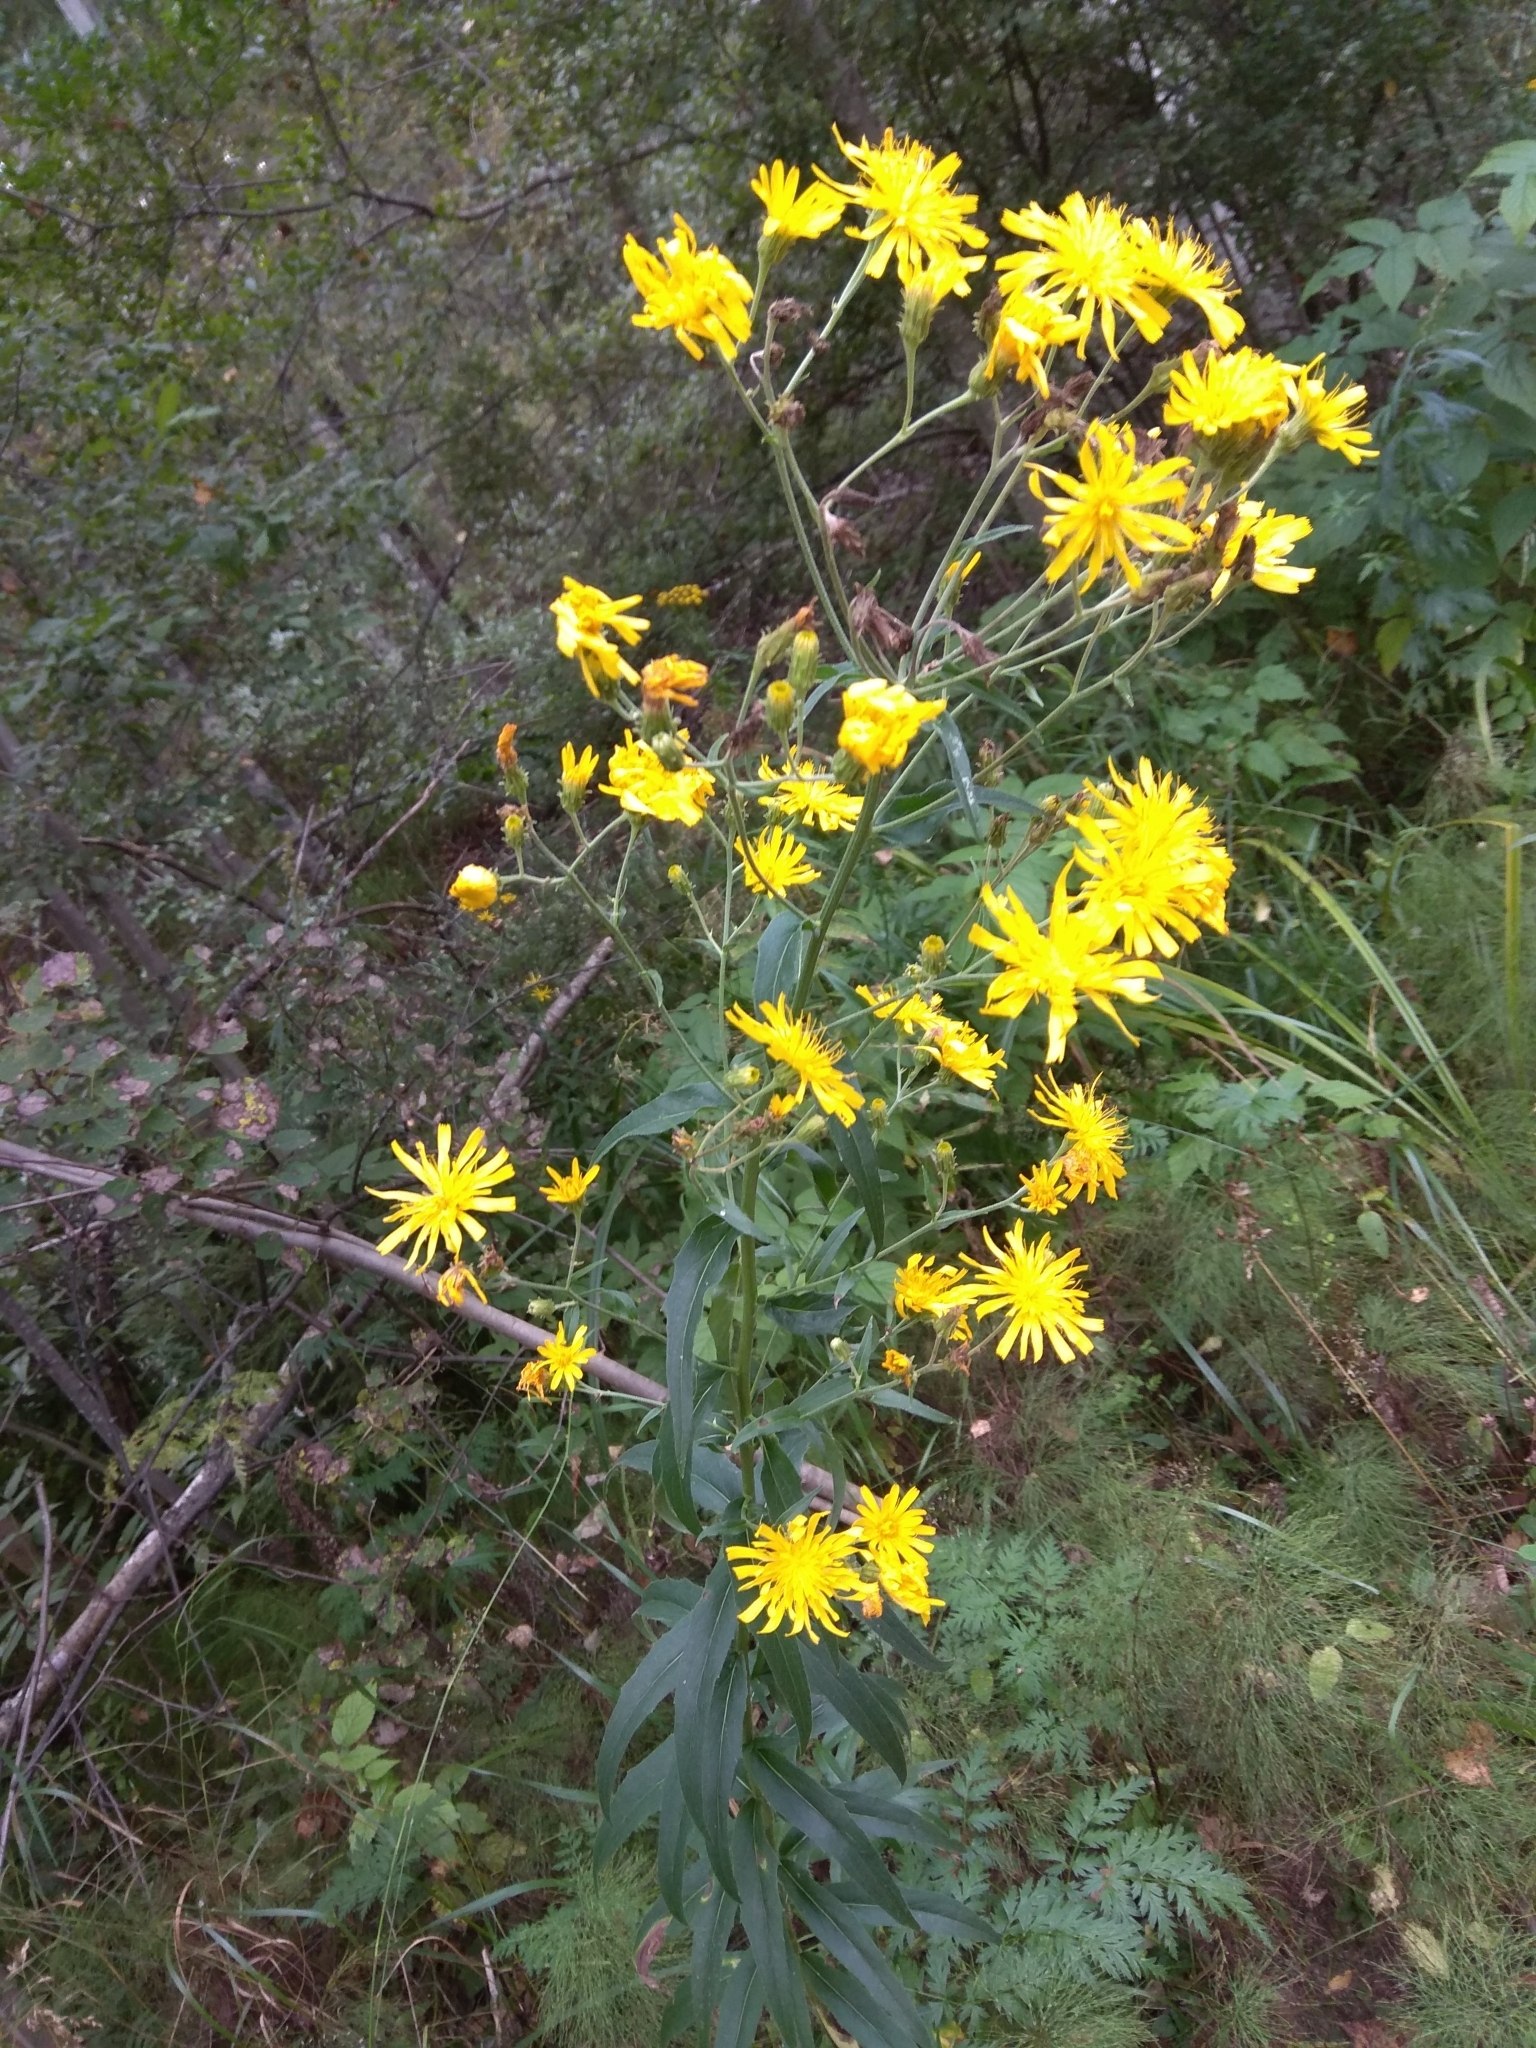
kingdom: Plantae
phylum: Tracheophyta
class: Magnoliopsida
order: Asterales
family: Asteraceae
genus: Hieracium
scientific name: Hieracium umbellatum
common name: Northern hawkweed
